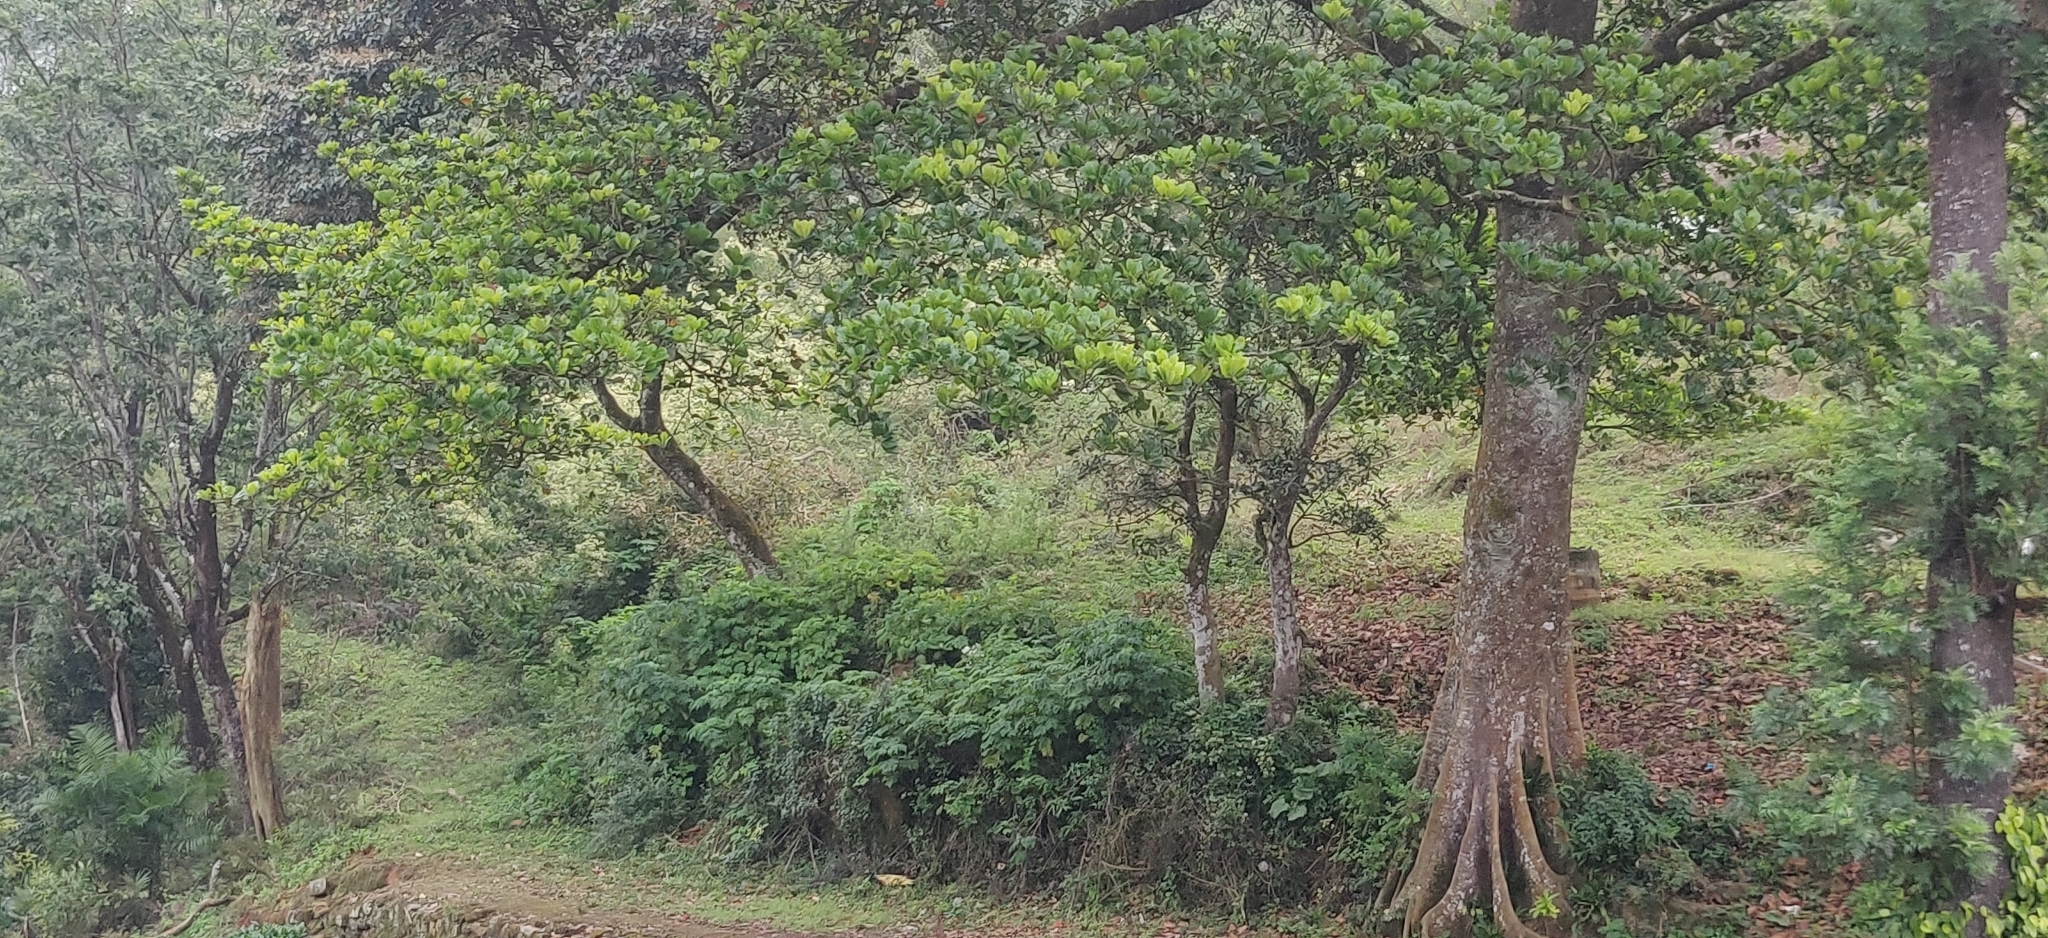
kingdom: Plantae
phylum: Tracheophyta
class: Magnoliopsida
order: Oxalidales
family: Elaeocarpaceae
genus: Elaeocarpus
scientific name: Elaeocarpus tuberculatus
